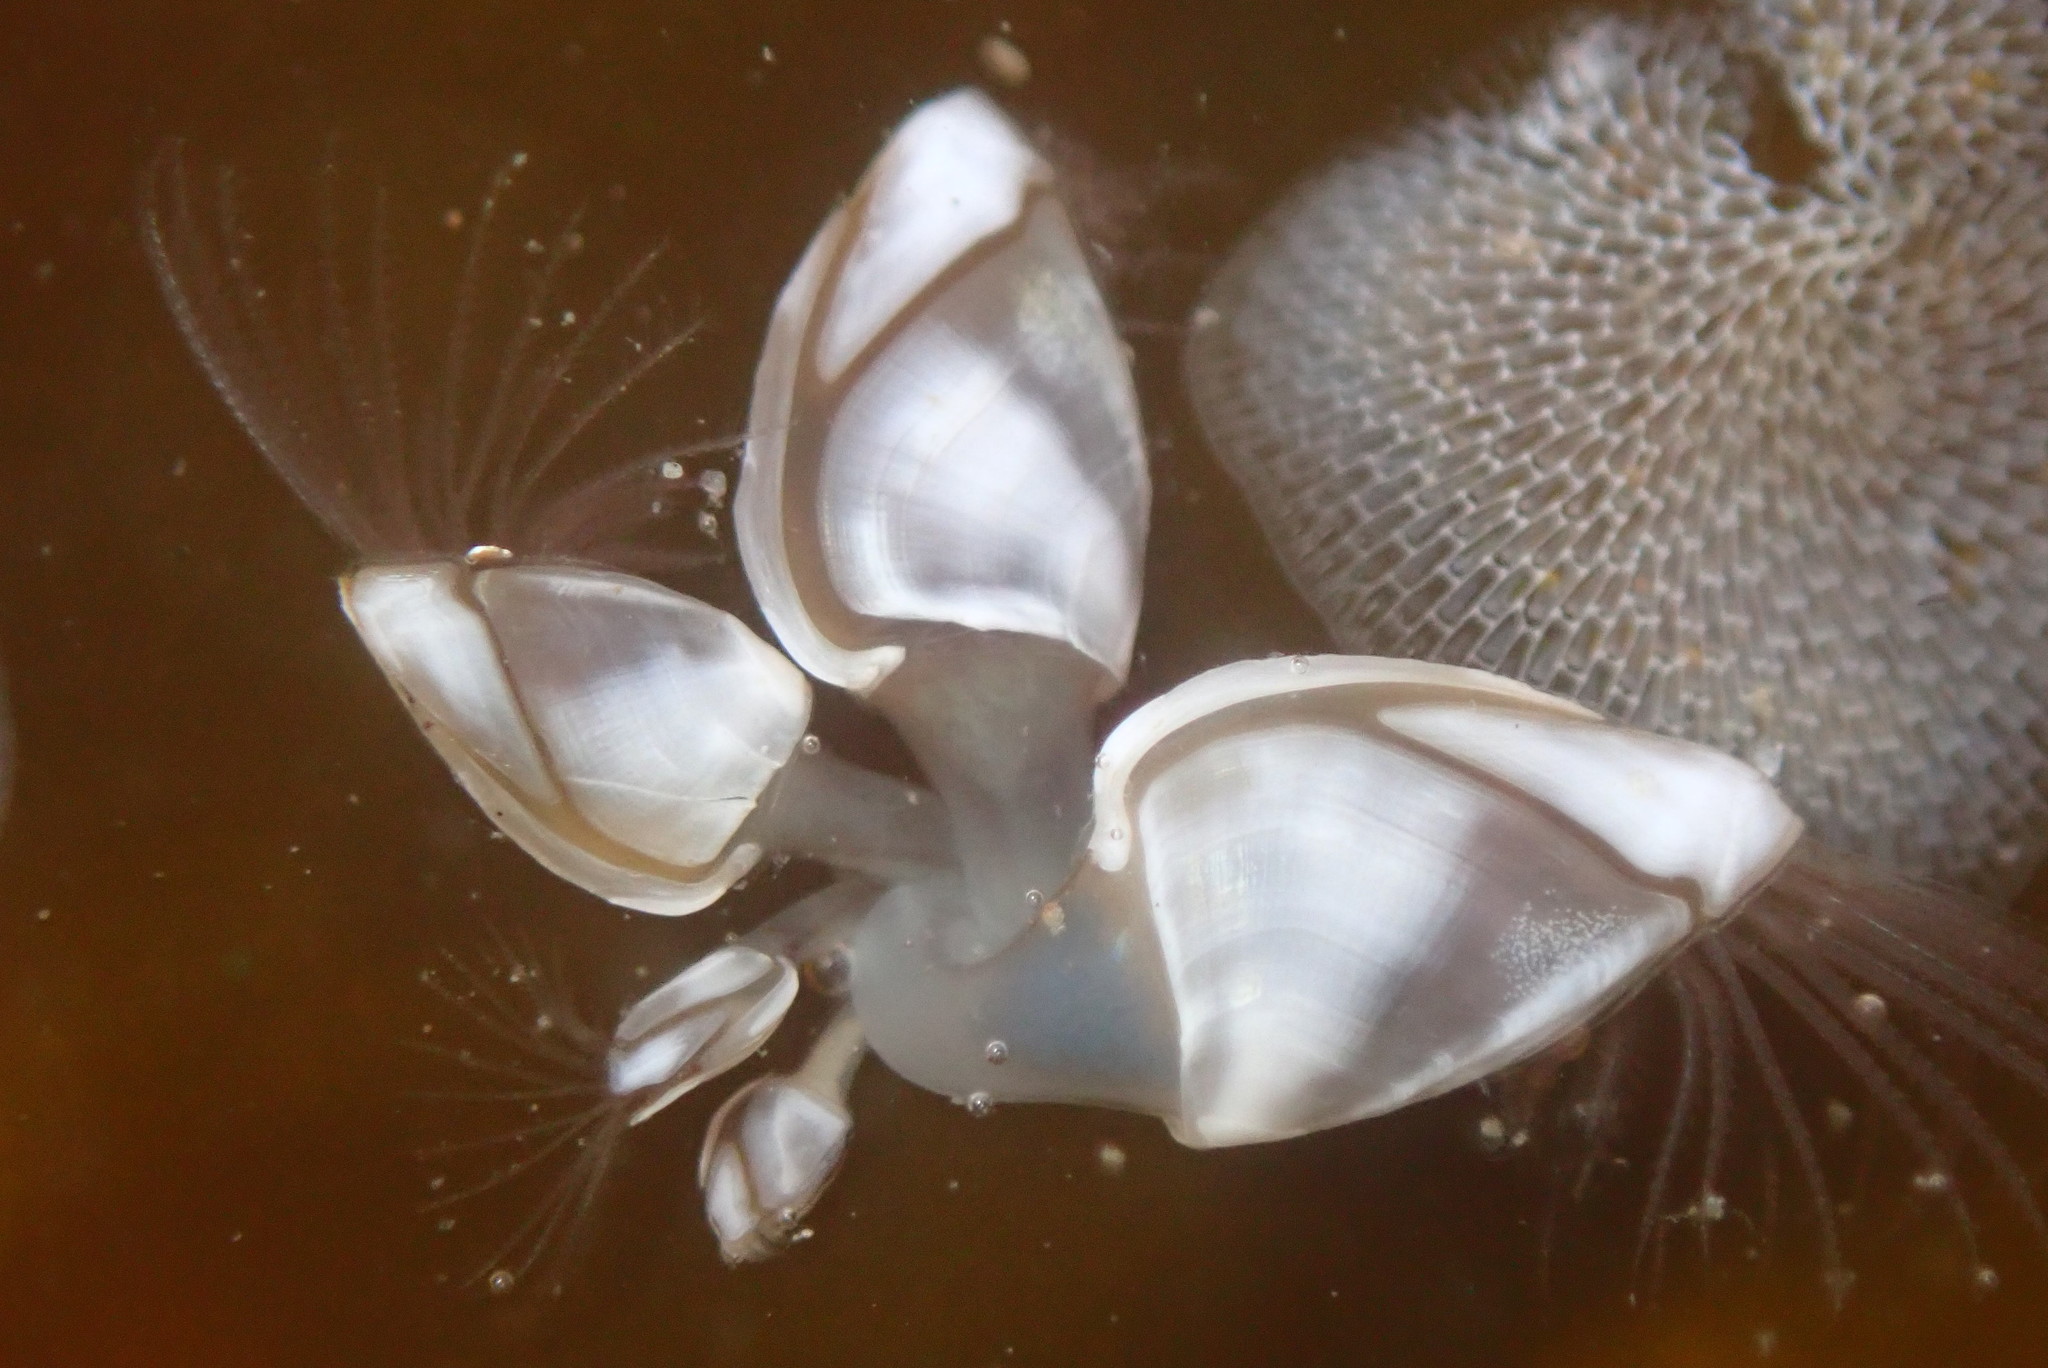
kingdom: Animalia
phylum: Arthropoda
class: Maxillopoda
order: Pedunculata
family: Lepadidae
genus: Lepas
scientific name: Lepas pacifica
